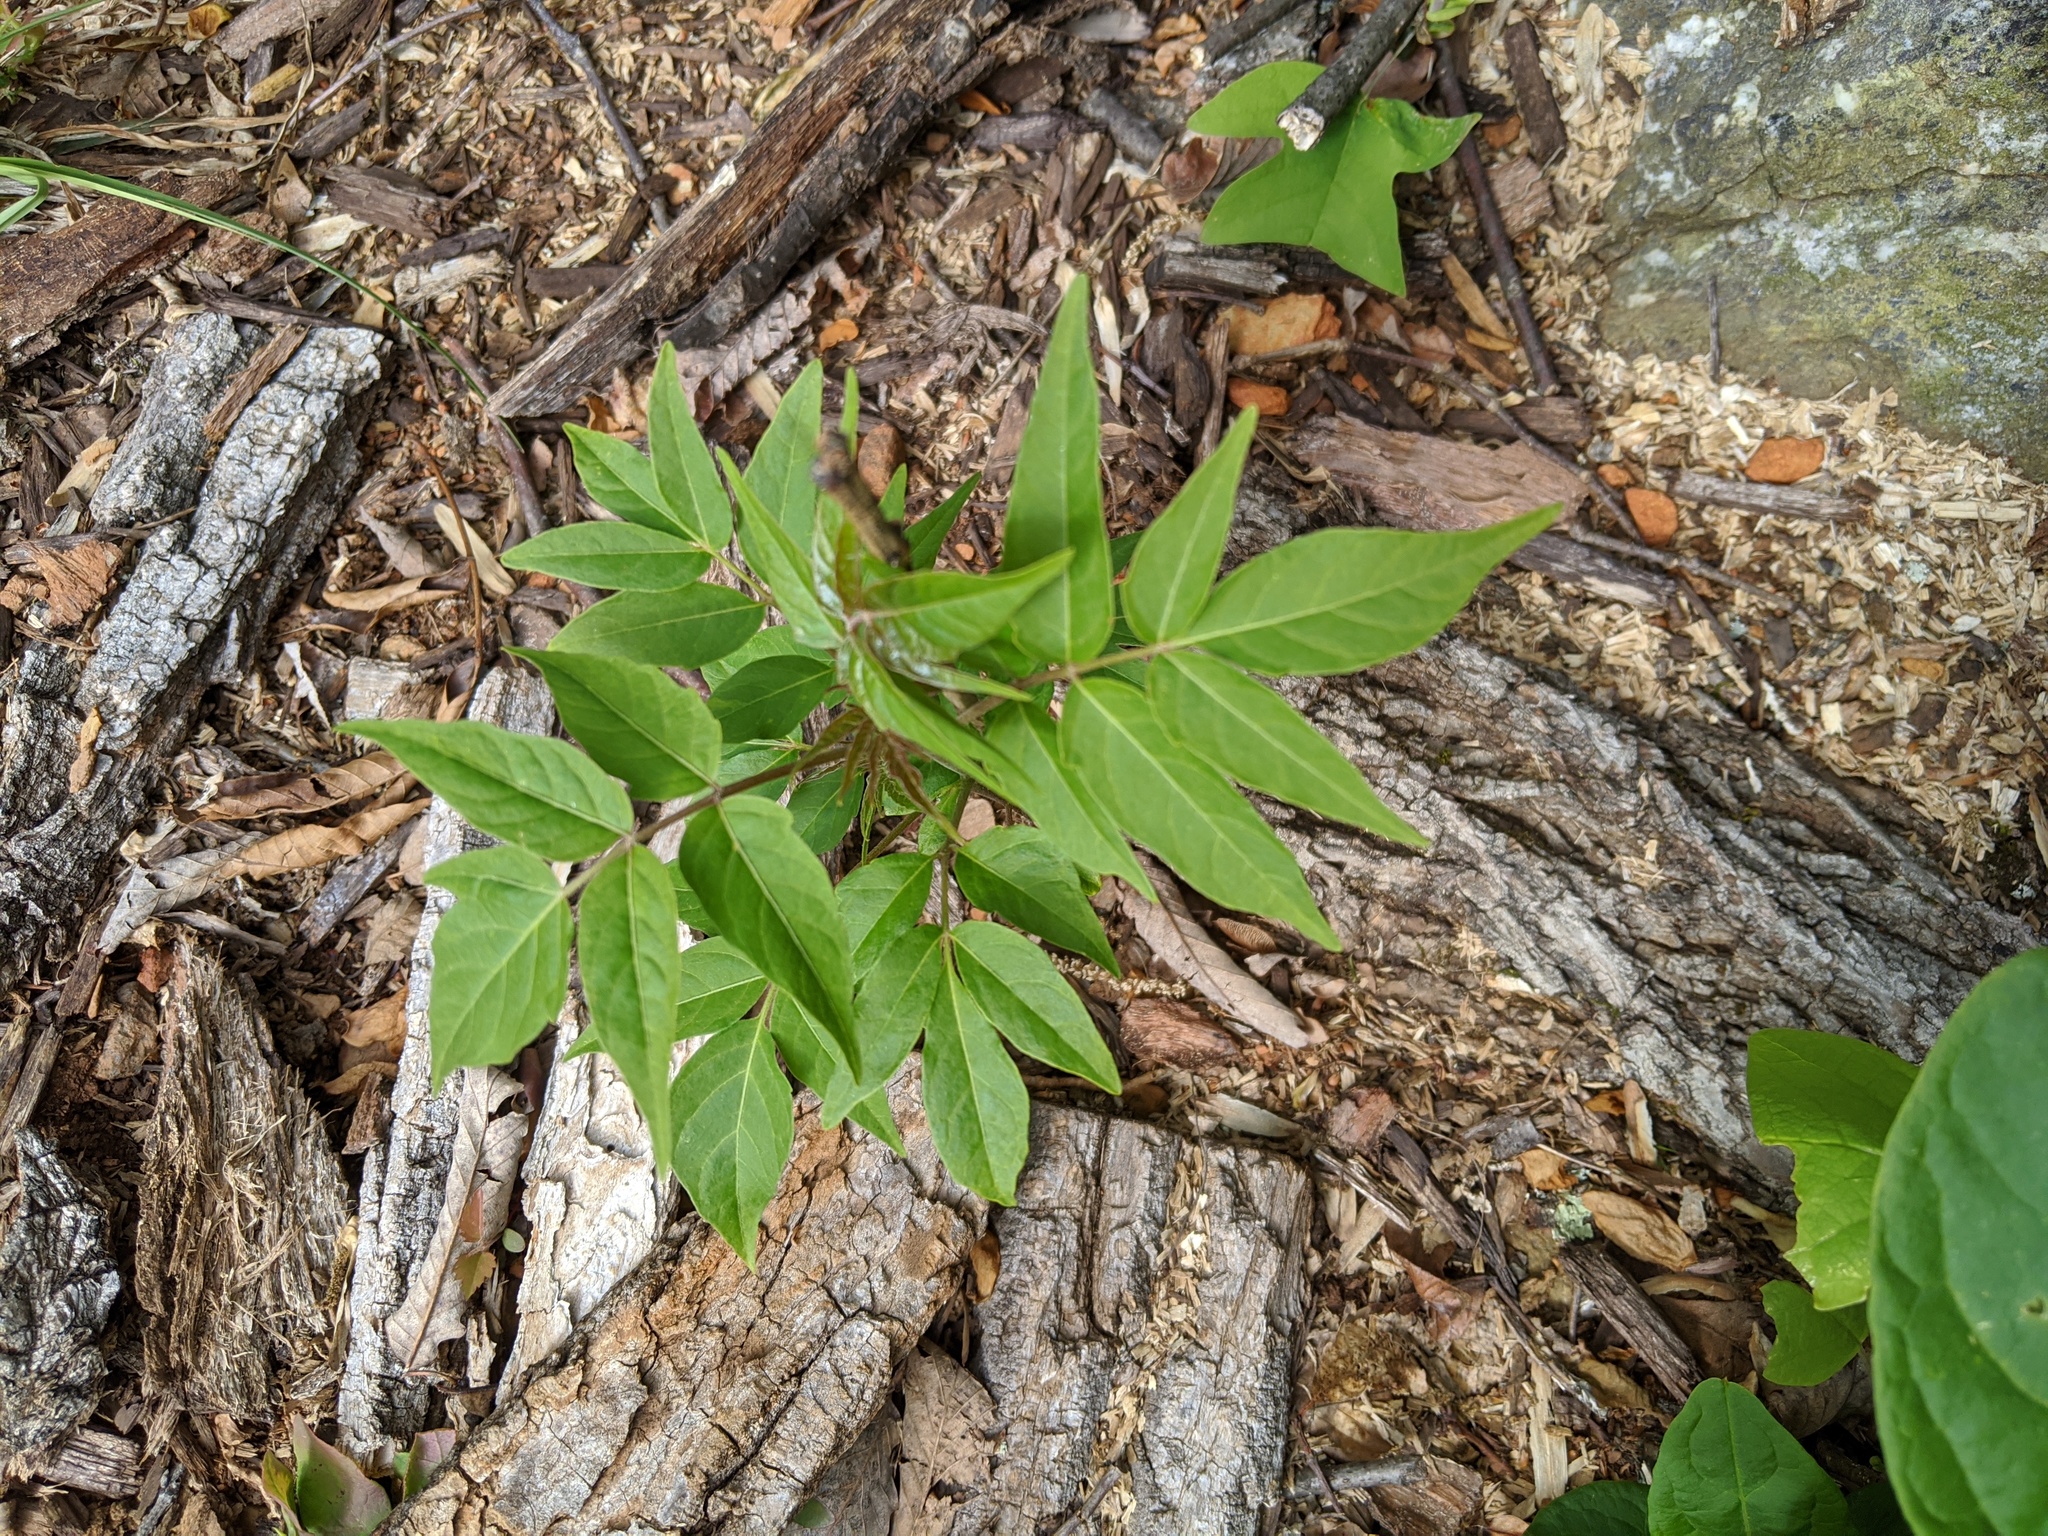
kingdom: Plantae
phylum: Tracheophyta
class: Magnoliopsida
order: Sapindales
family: Simaroubaceae
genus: Ailanthus
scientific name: Ailanthus altissima
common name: Tree-of-heaven
